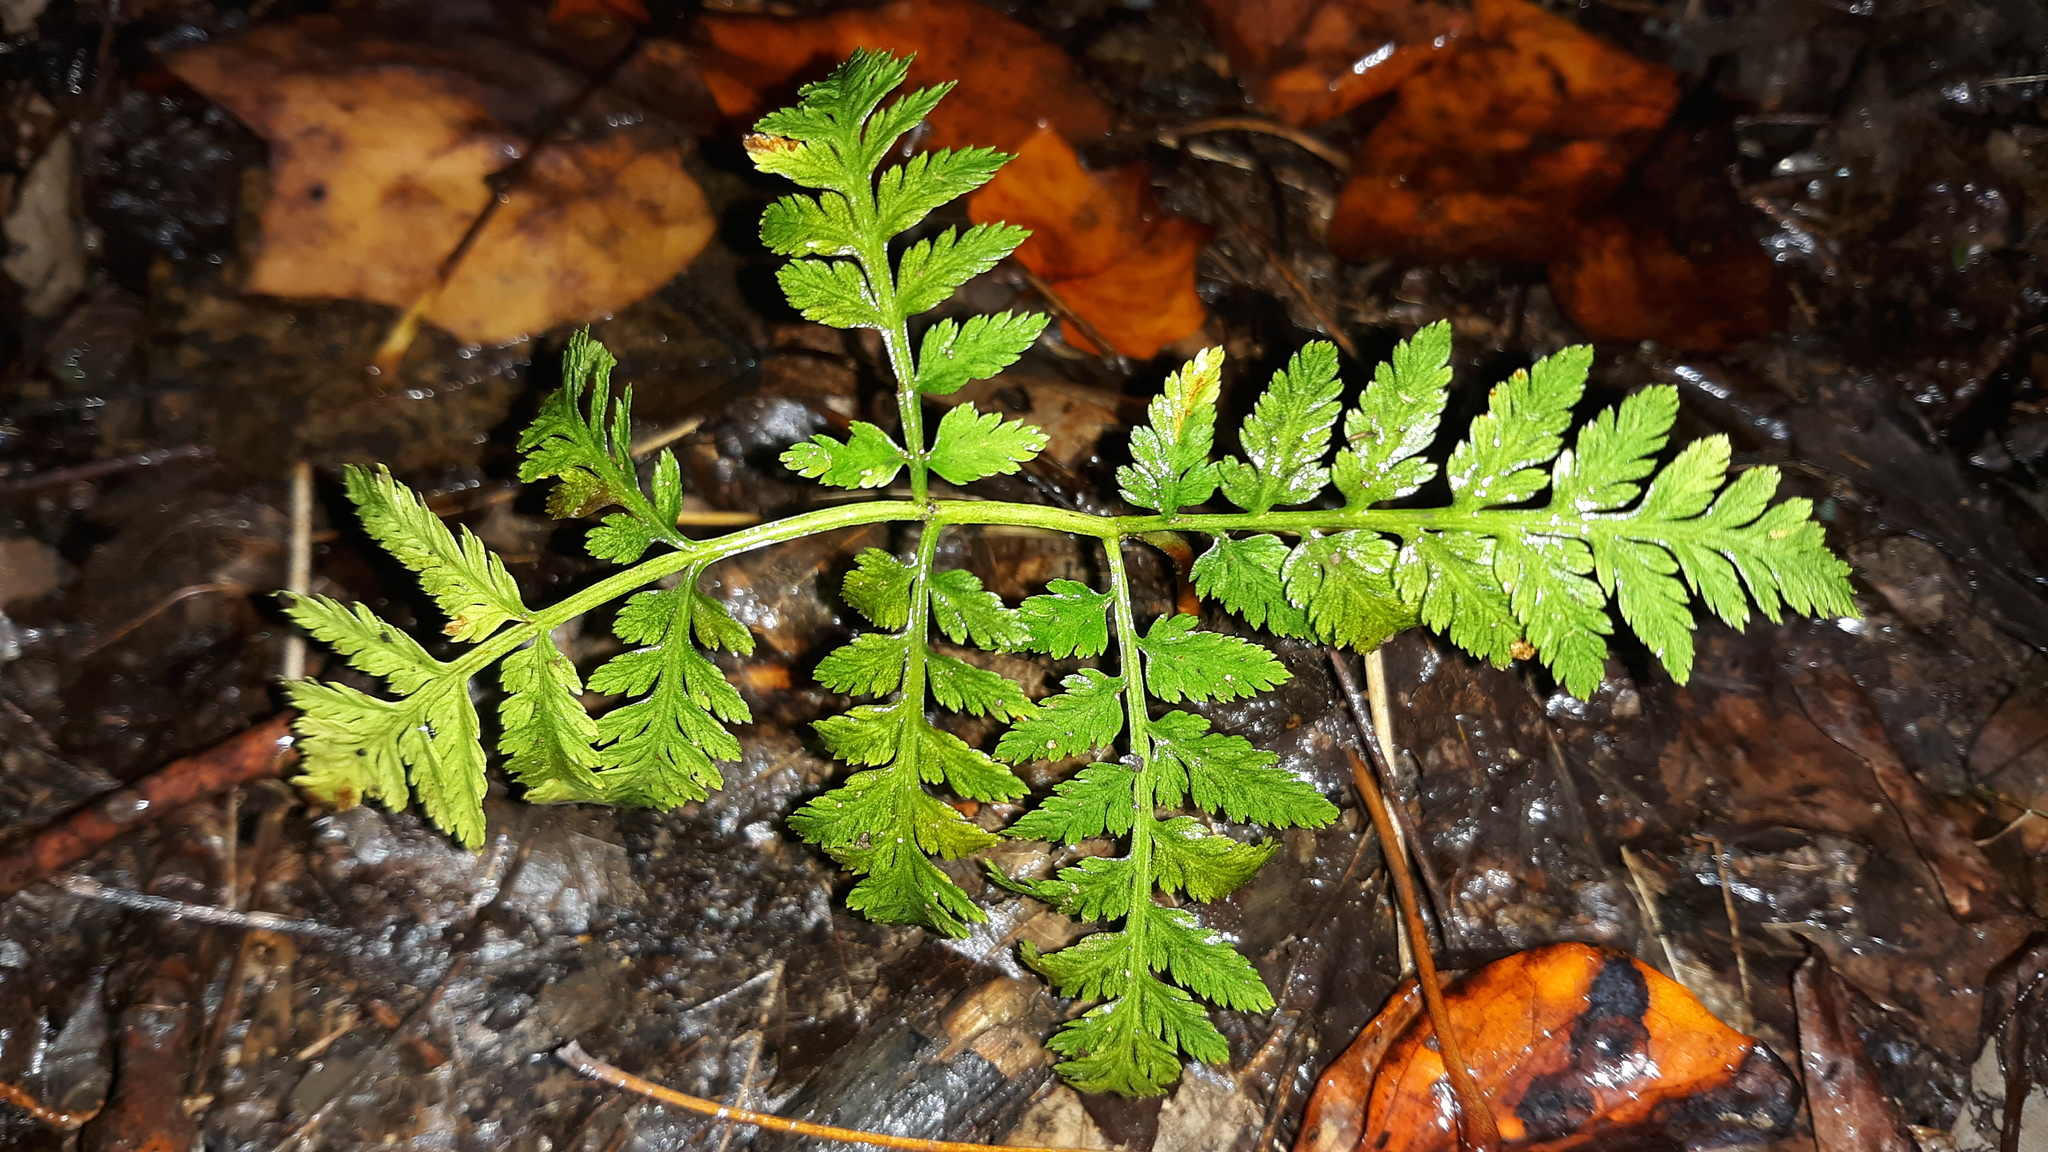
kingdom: Plantae
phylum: Tracheophyta
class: Polypodiopsida
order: Ophioglossales
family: Ophioglossaceae
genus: Botrypus
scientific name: Botrypus virginianus
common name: Common grapefern
